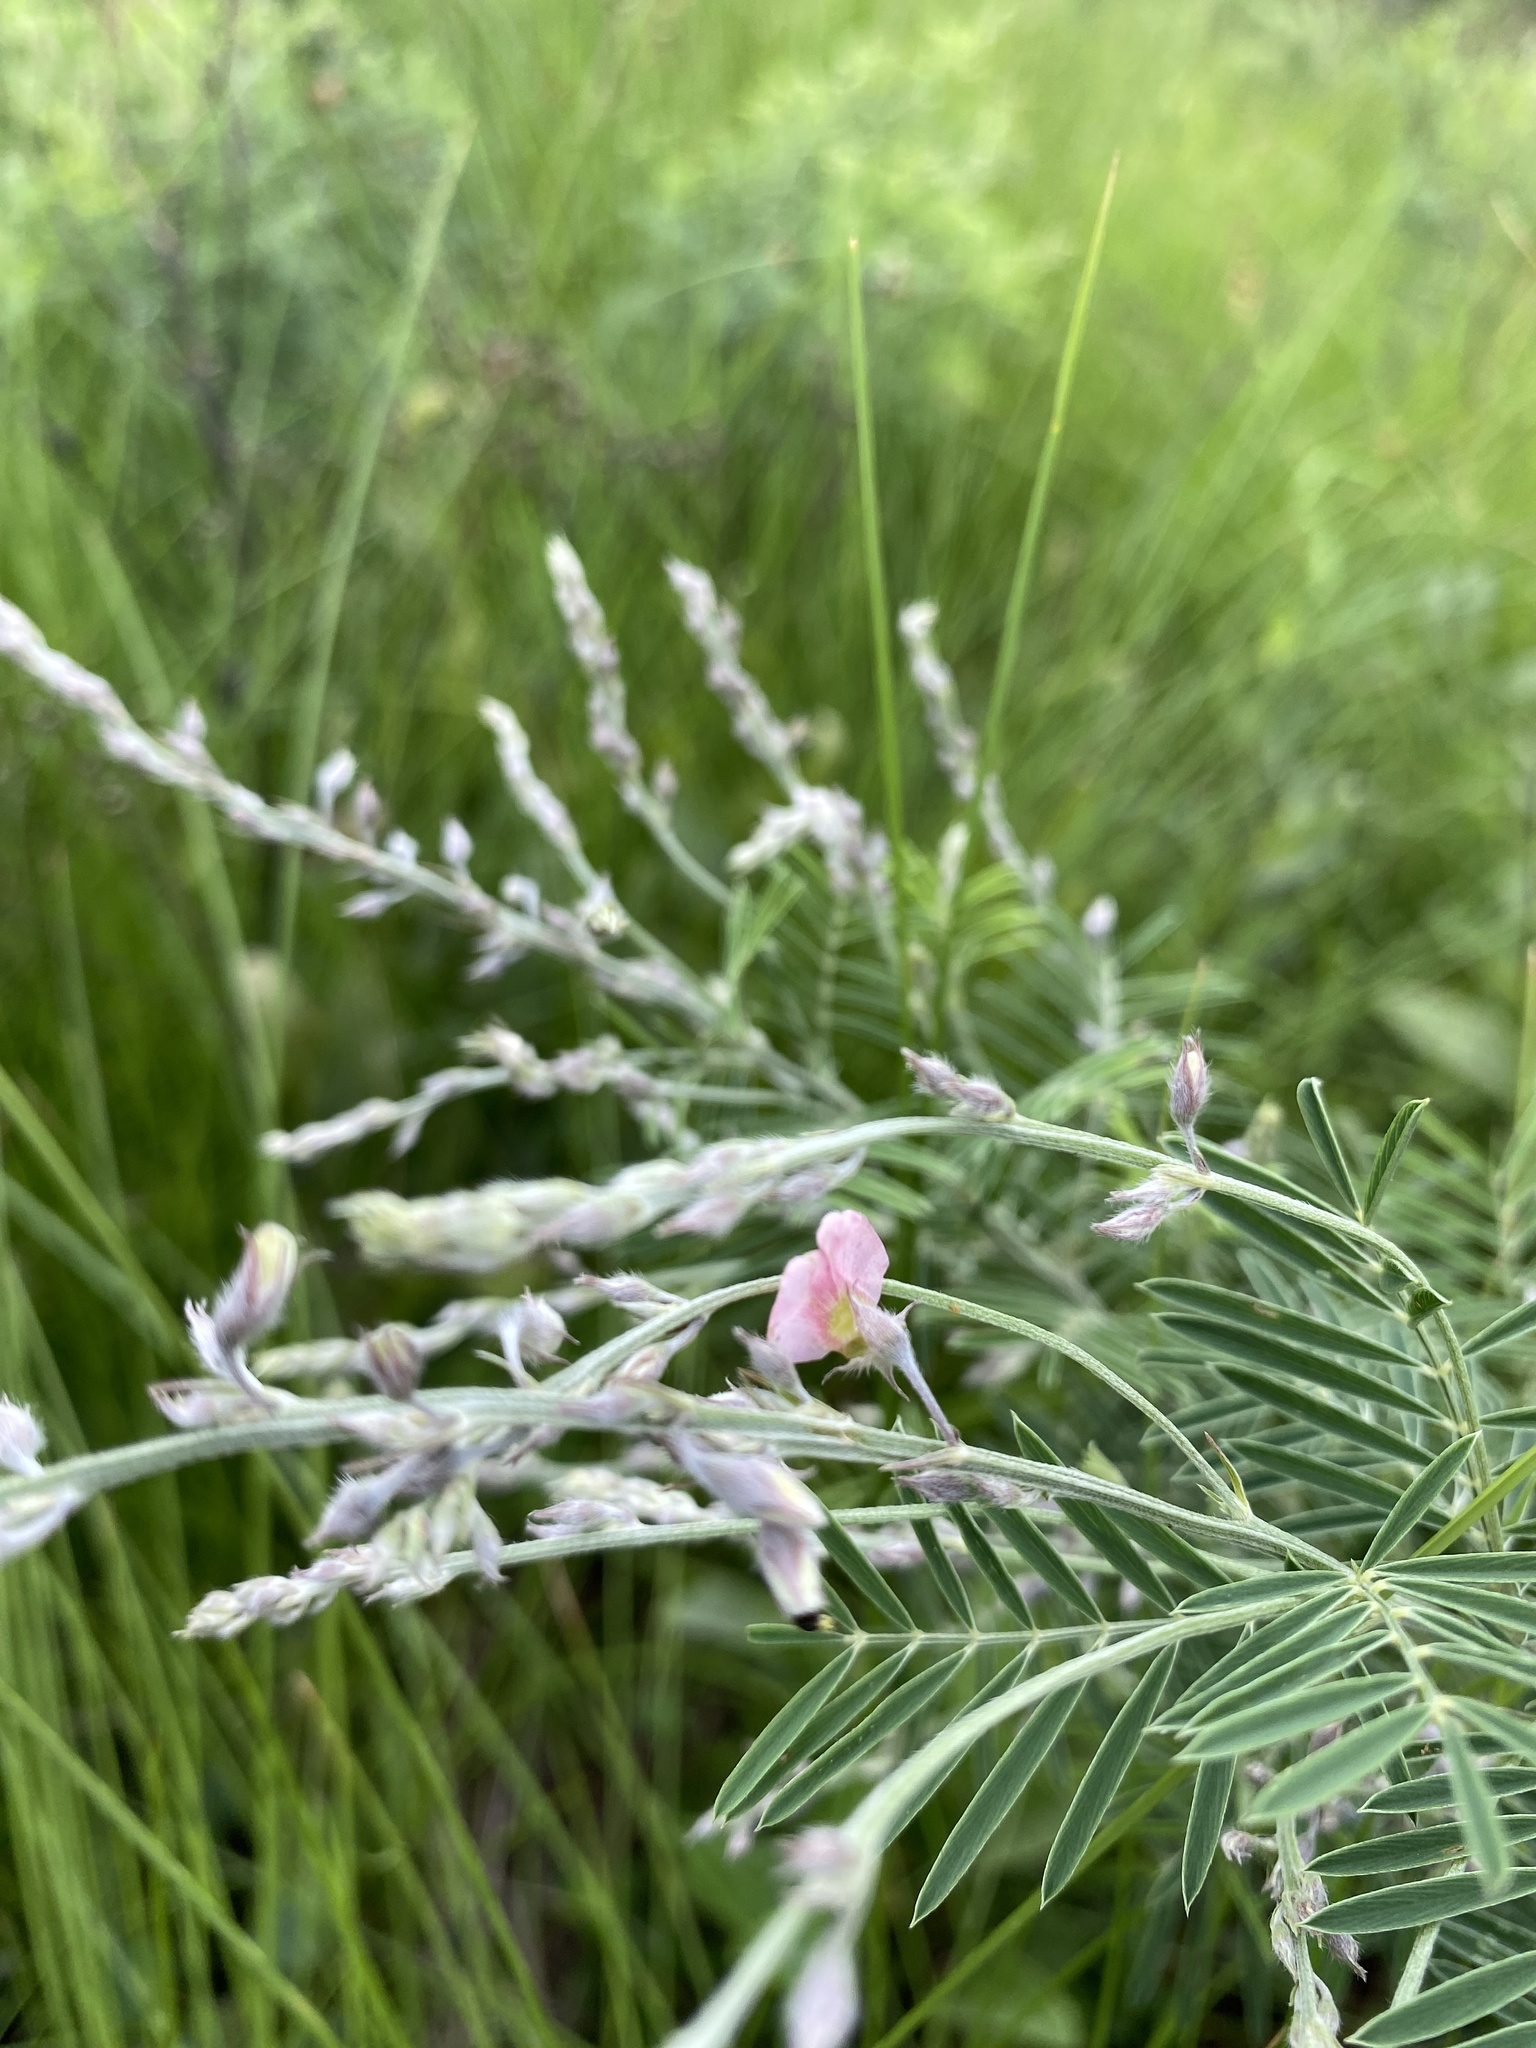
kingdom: Plantae
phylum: Tracheophyta
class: Magnoliopsida
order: Fabales
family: Fabaceae
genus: Tephrosia
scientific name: Tephrosia polystachya
